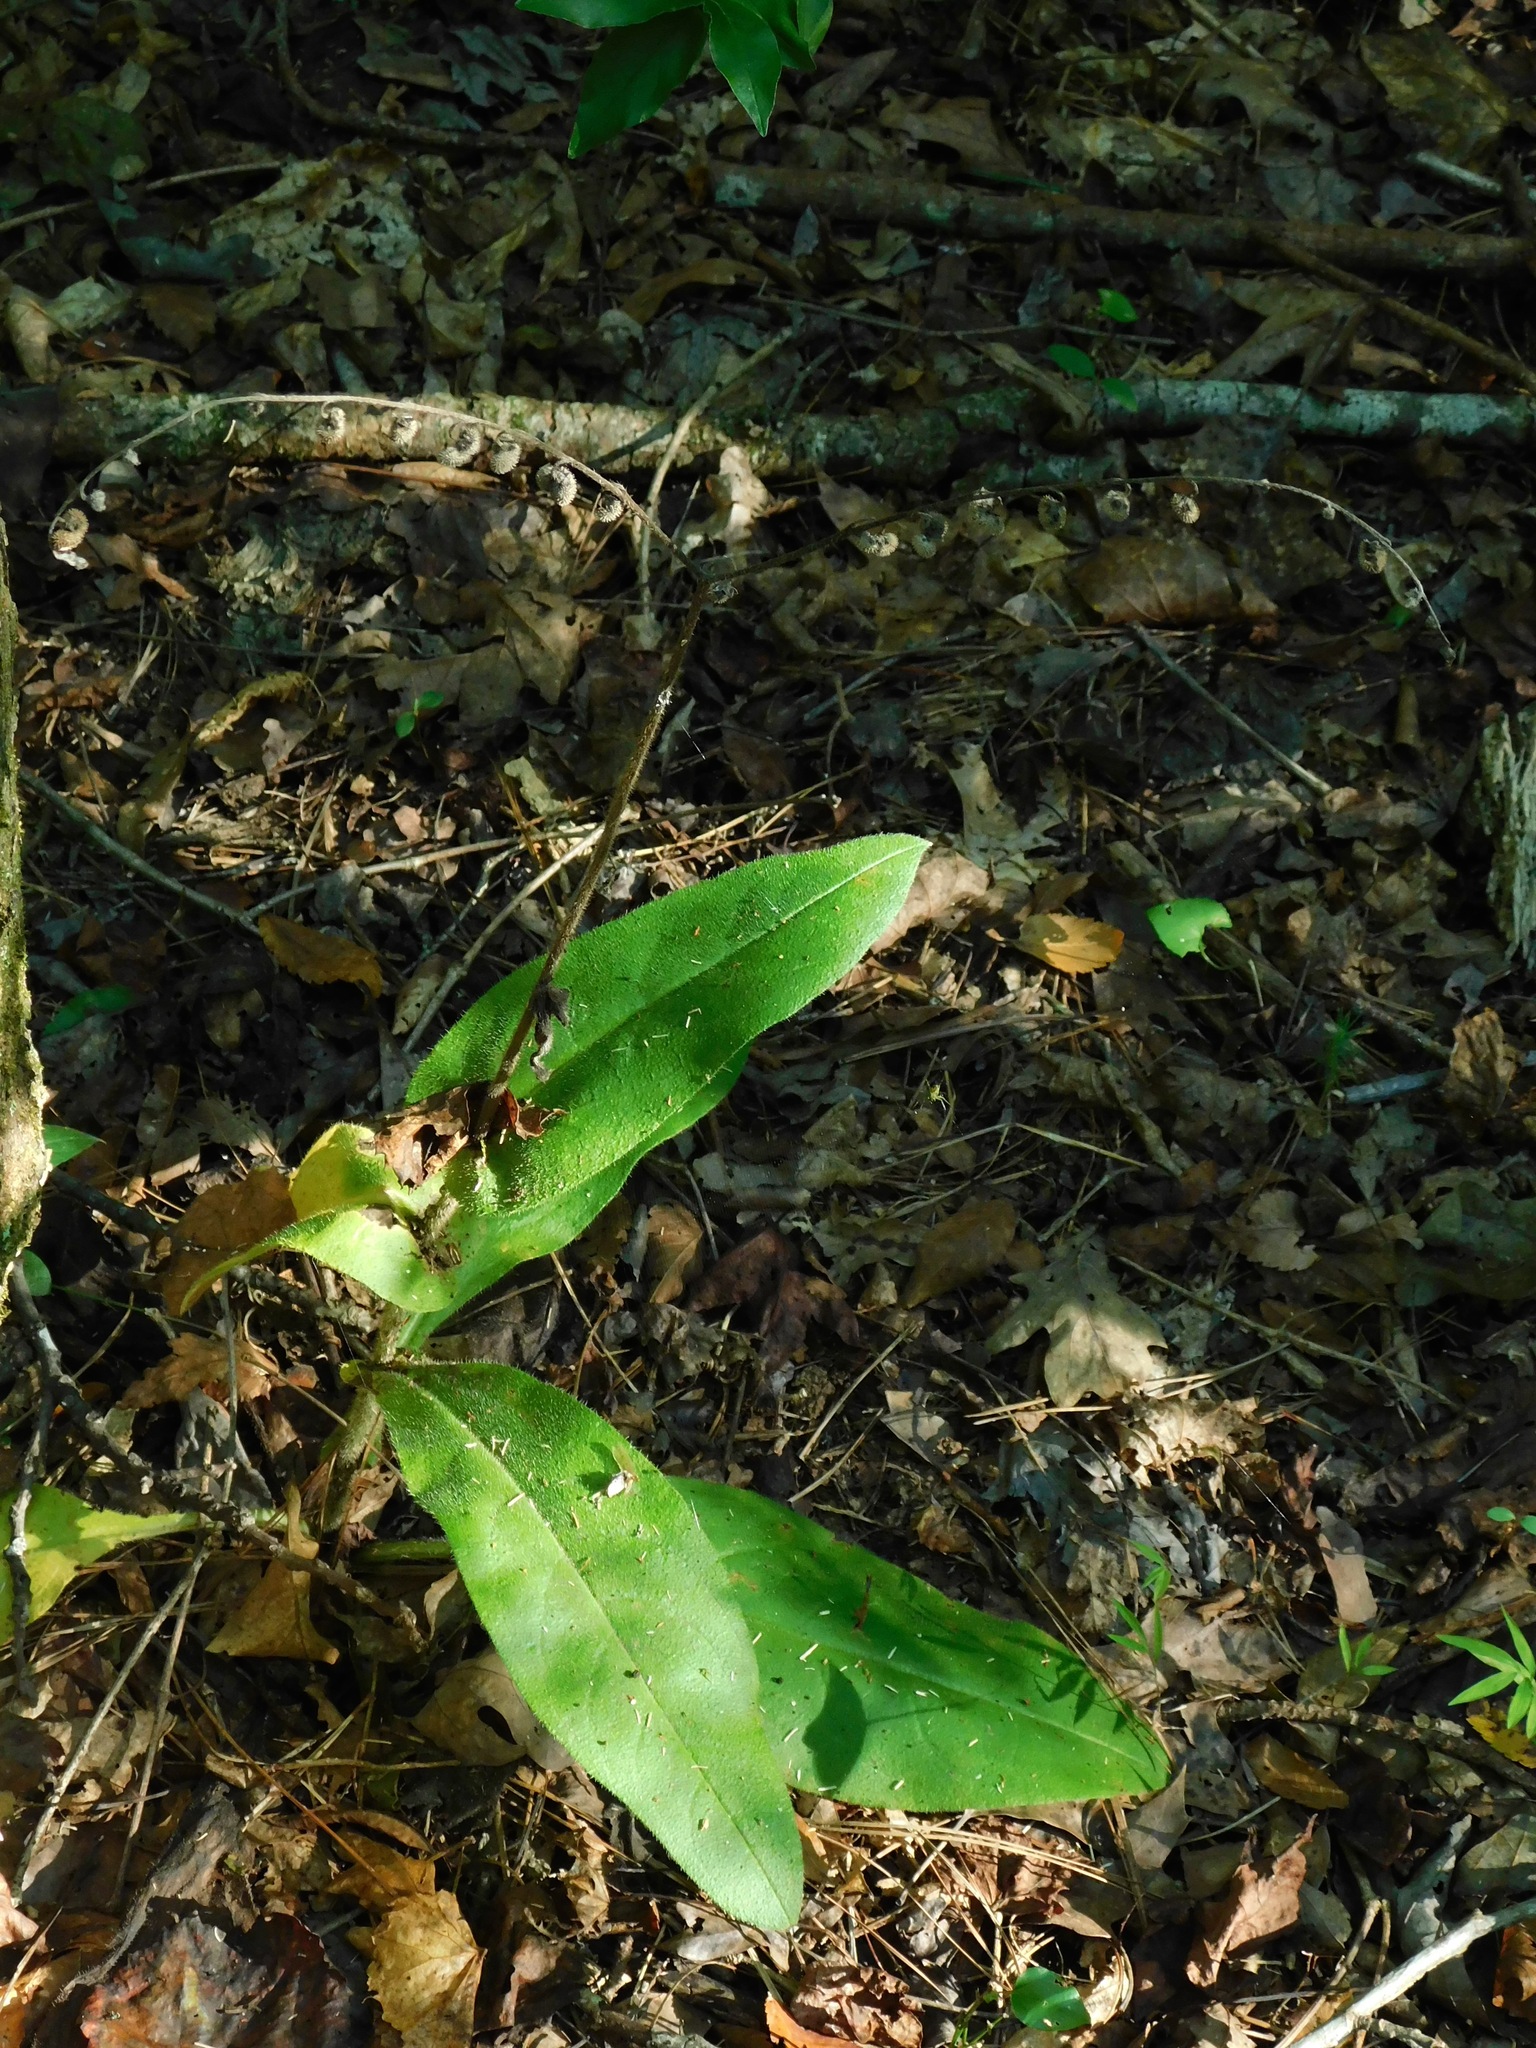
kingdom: Plantae
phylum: Tracheophyta
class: Magnoliopsida
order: Boraginales
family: Boraginaceae
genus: Andersonglossum
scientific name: Andersonglossum virginianum
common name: Wild comfrey
